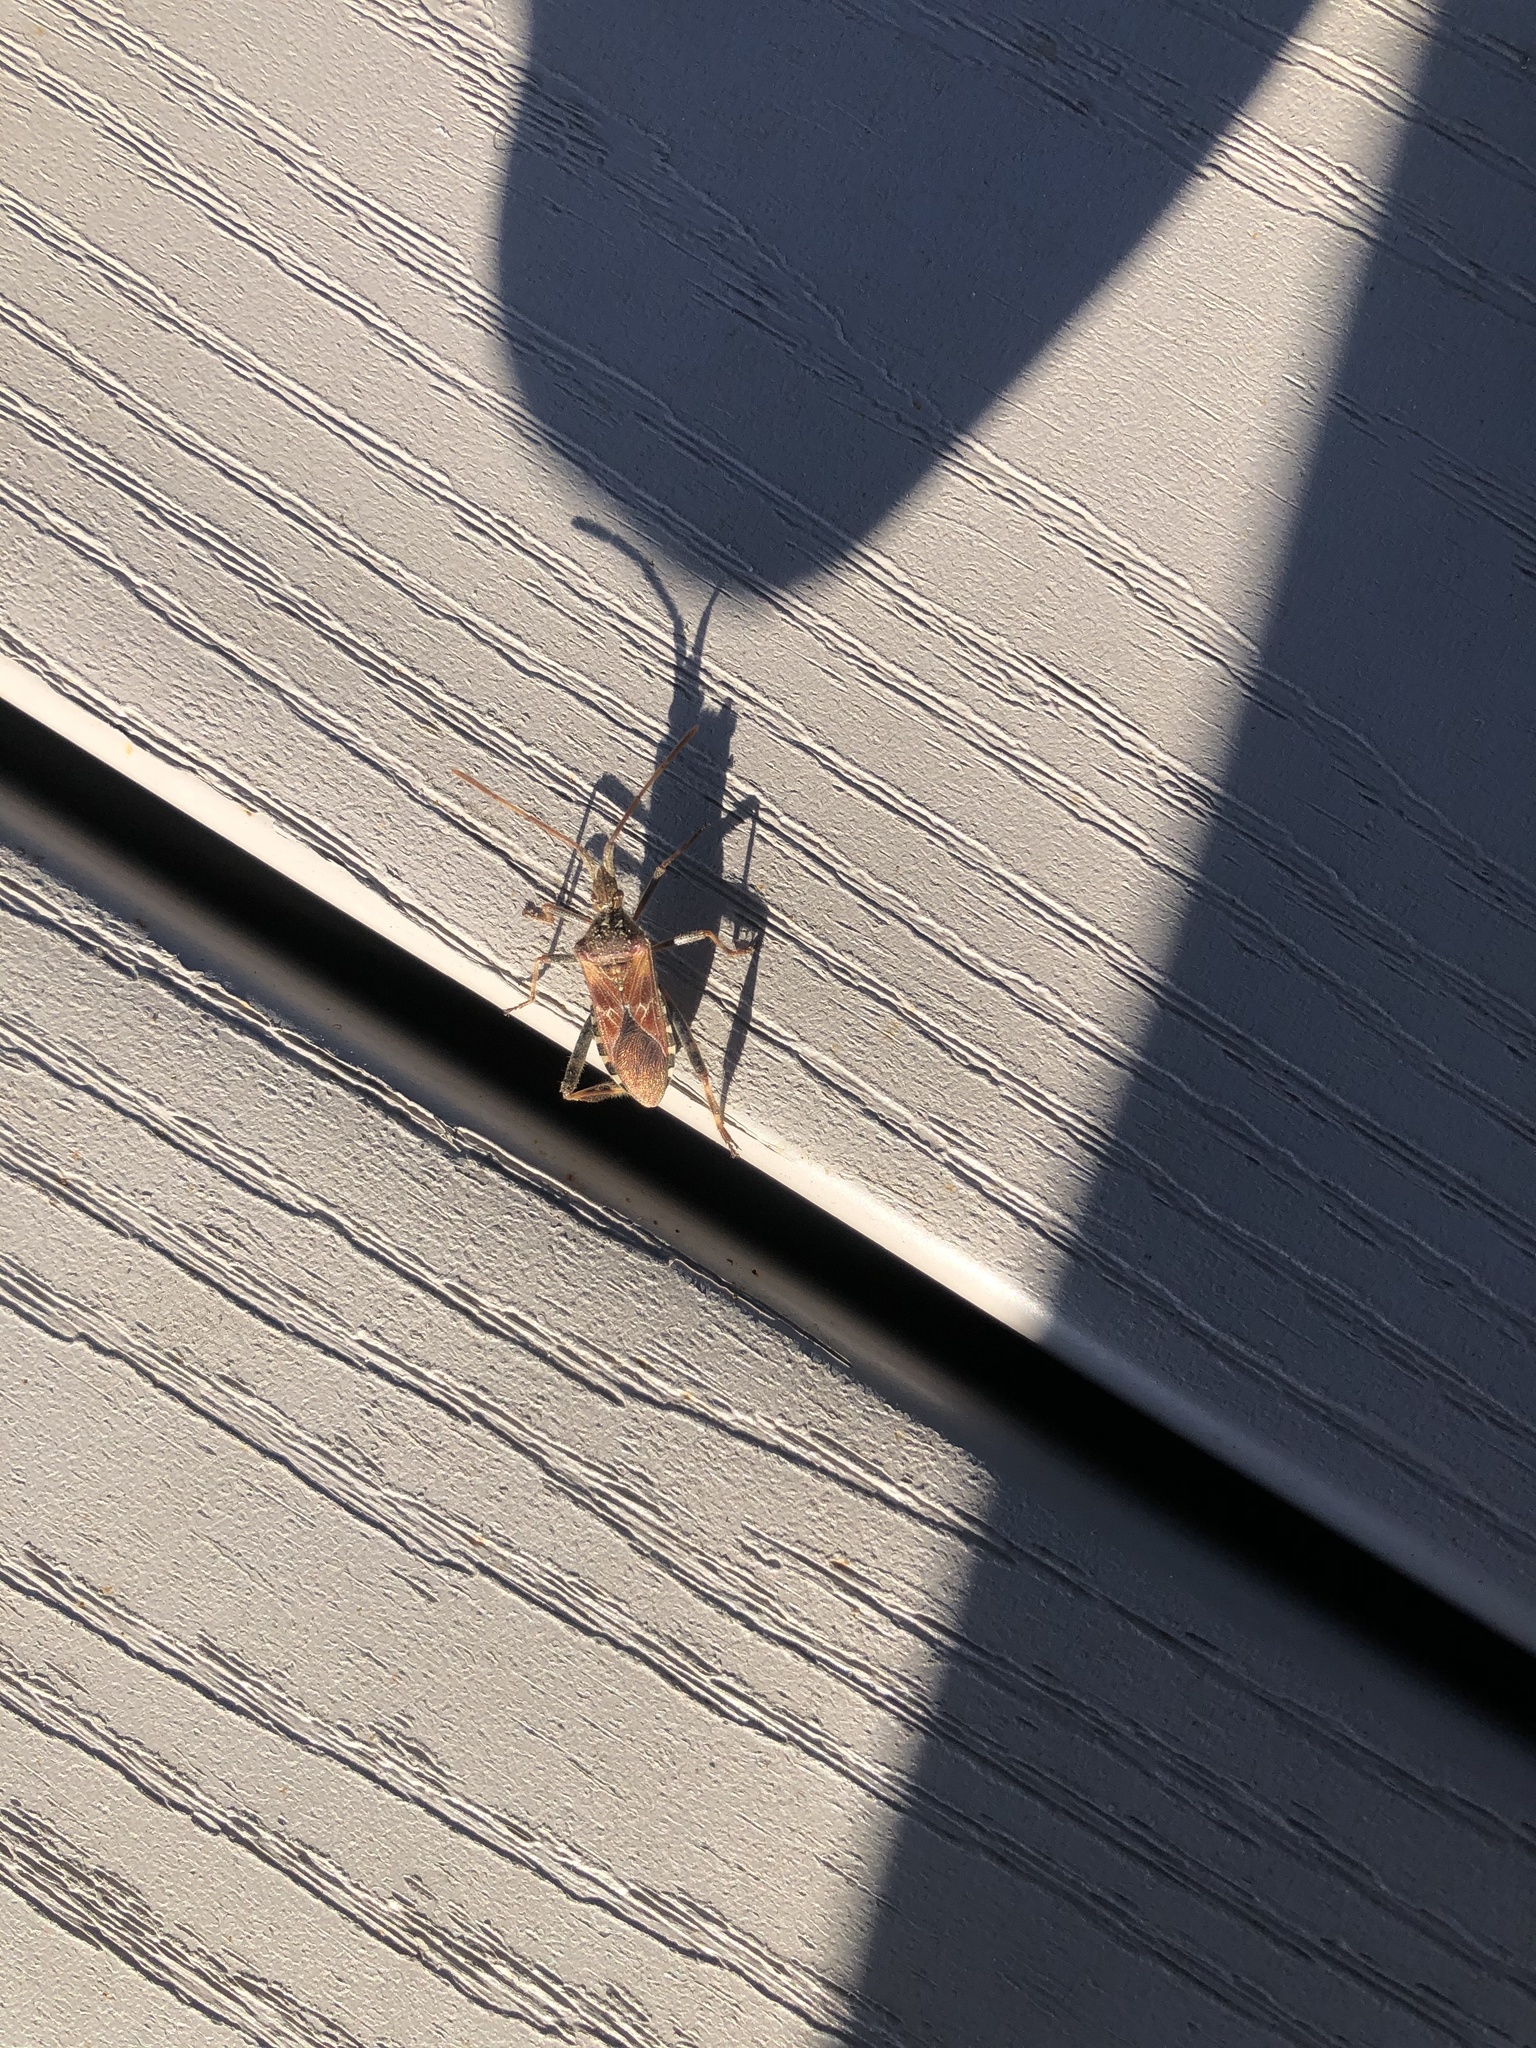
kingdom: Animalia
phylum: Arthropoda
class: Insecta
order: Hemiptera
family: Coreidae
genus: Leptoglossus
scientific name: Leptoglossus occidentalis
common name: Western conifer-seed bug
